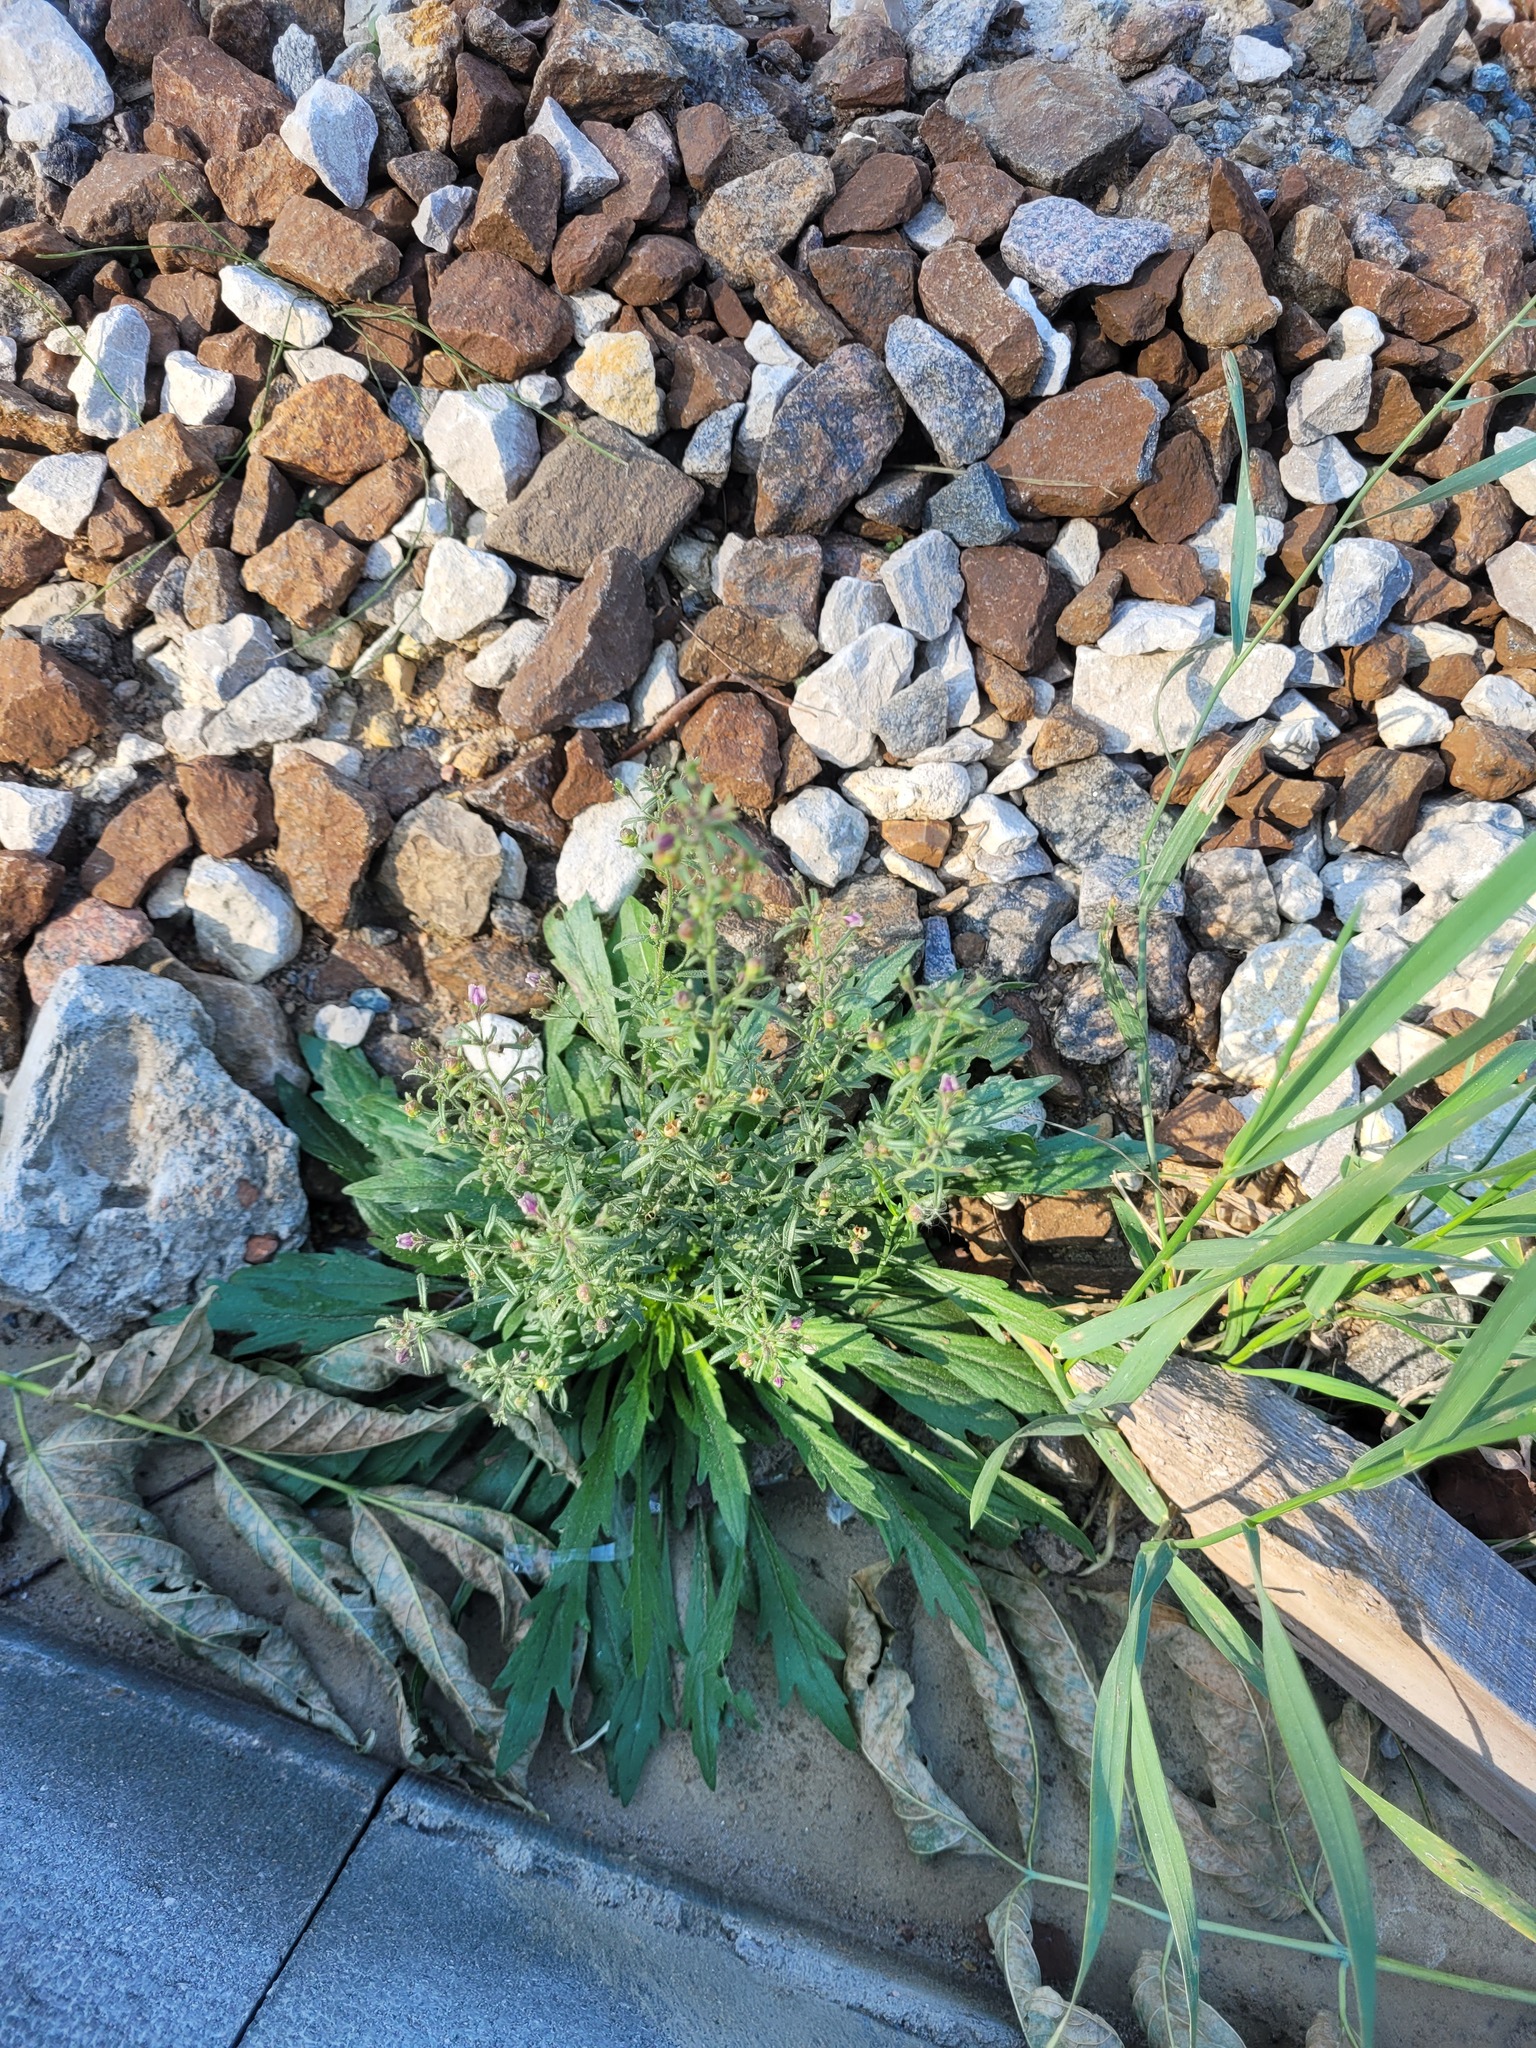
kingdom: Plantae
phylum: Tracheophyta
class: Magnoliopsida
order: Lamiales
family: Plantaginaceae
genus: Chaenorhinum
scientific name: Chaenorhinum minus
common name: Dwarf snapdragon
